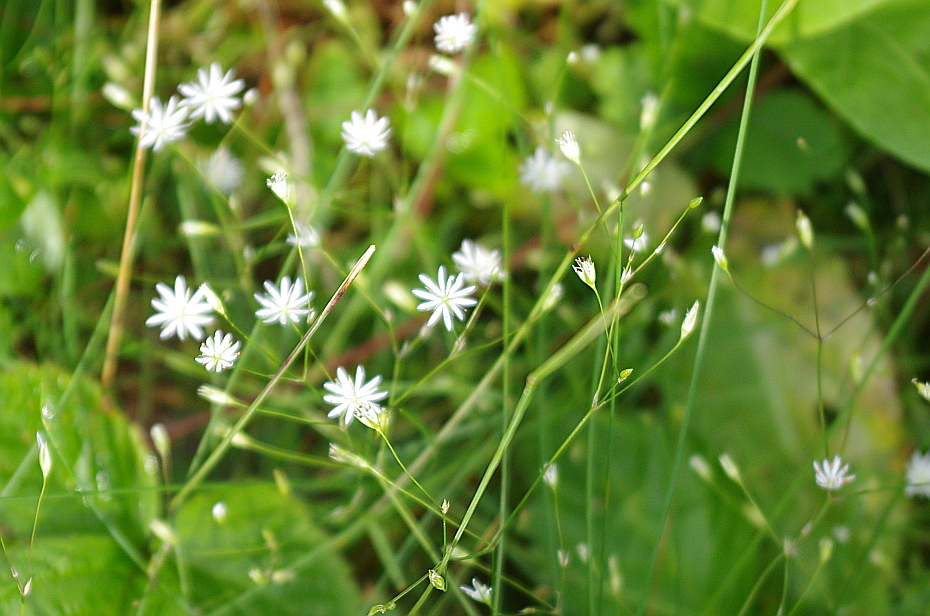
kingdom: Plantae
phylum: Tracheophyta
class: Magnoliopsida
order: Caryophyllales
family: Caryophyllaceae
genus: Stellaria
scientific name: Stellaria palustris
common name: Marsh stitchwort
